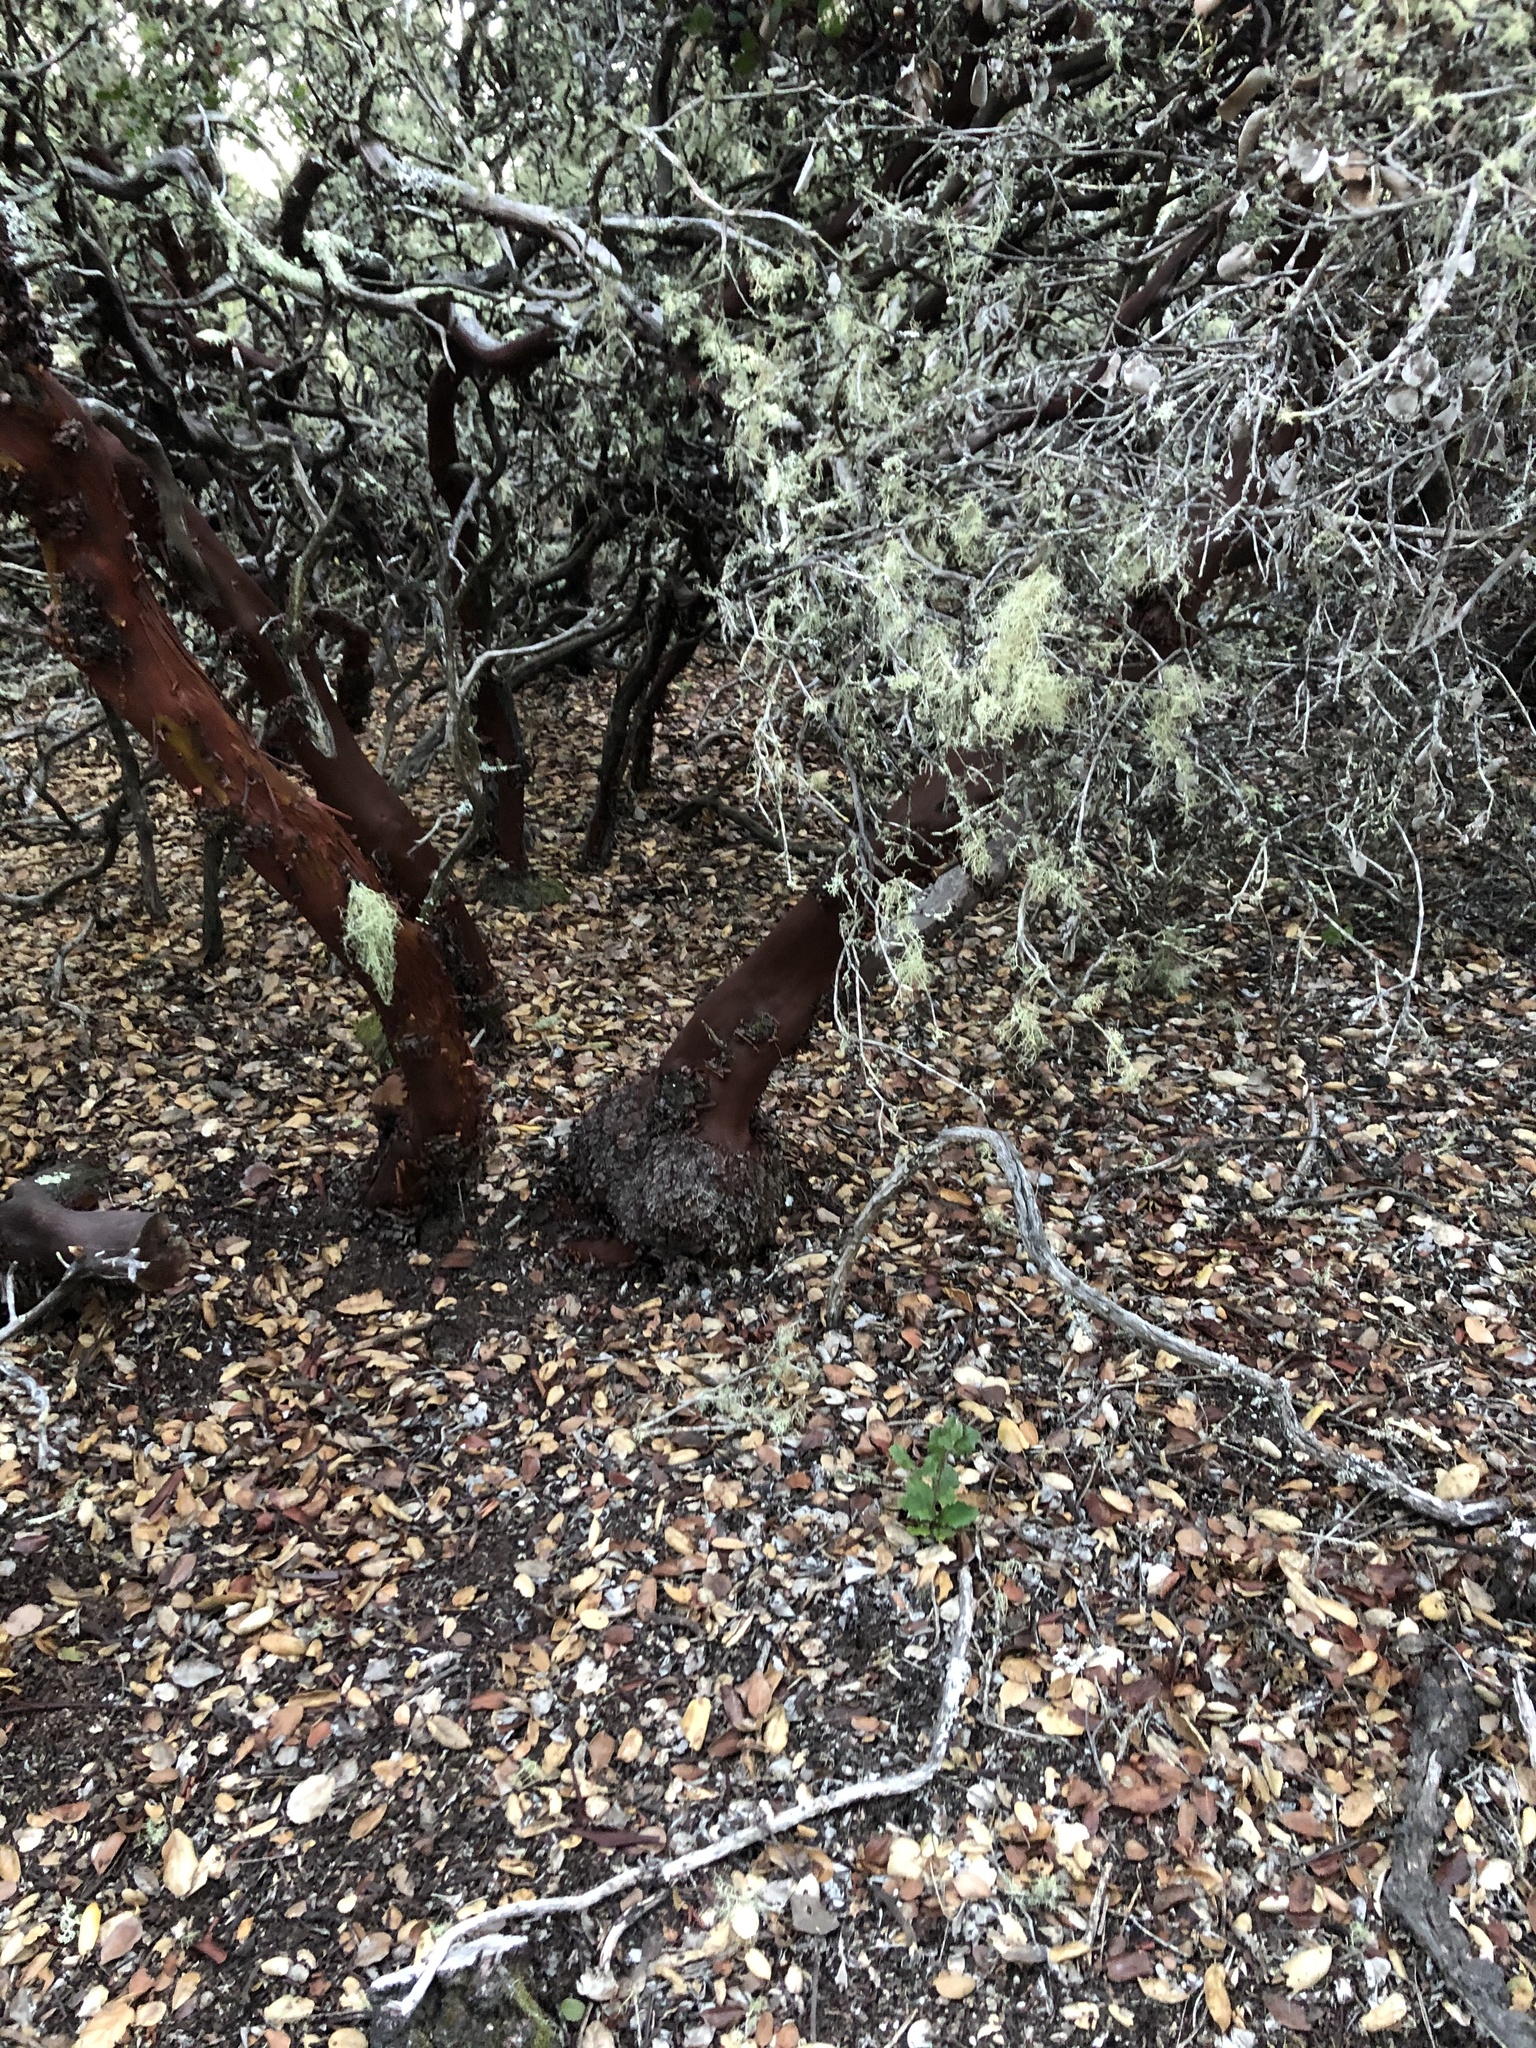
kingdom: Plantae
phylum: Tracheophyta
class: Magnoliopsida
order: Ericales
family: Ericaceae
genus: Arctostaphylos
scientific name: Arctostaphylos crustacea
